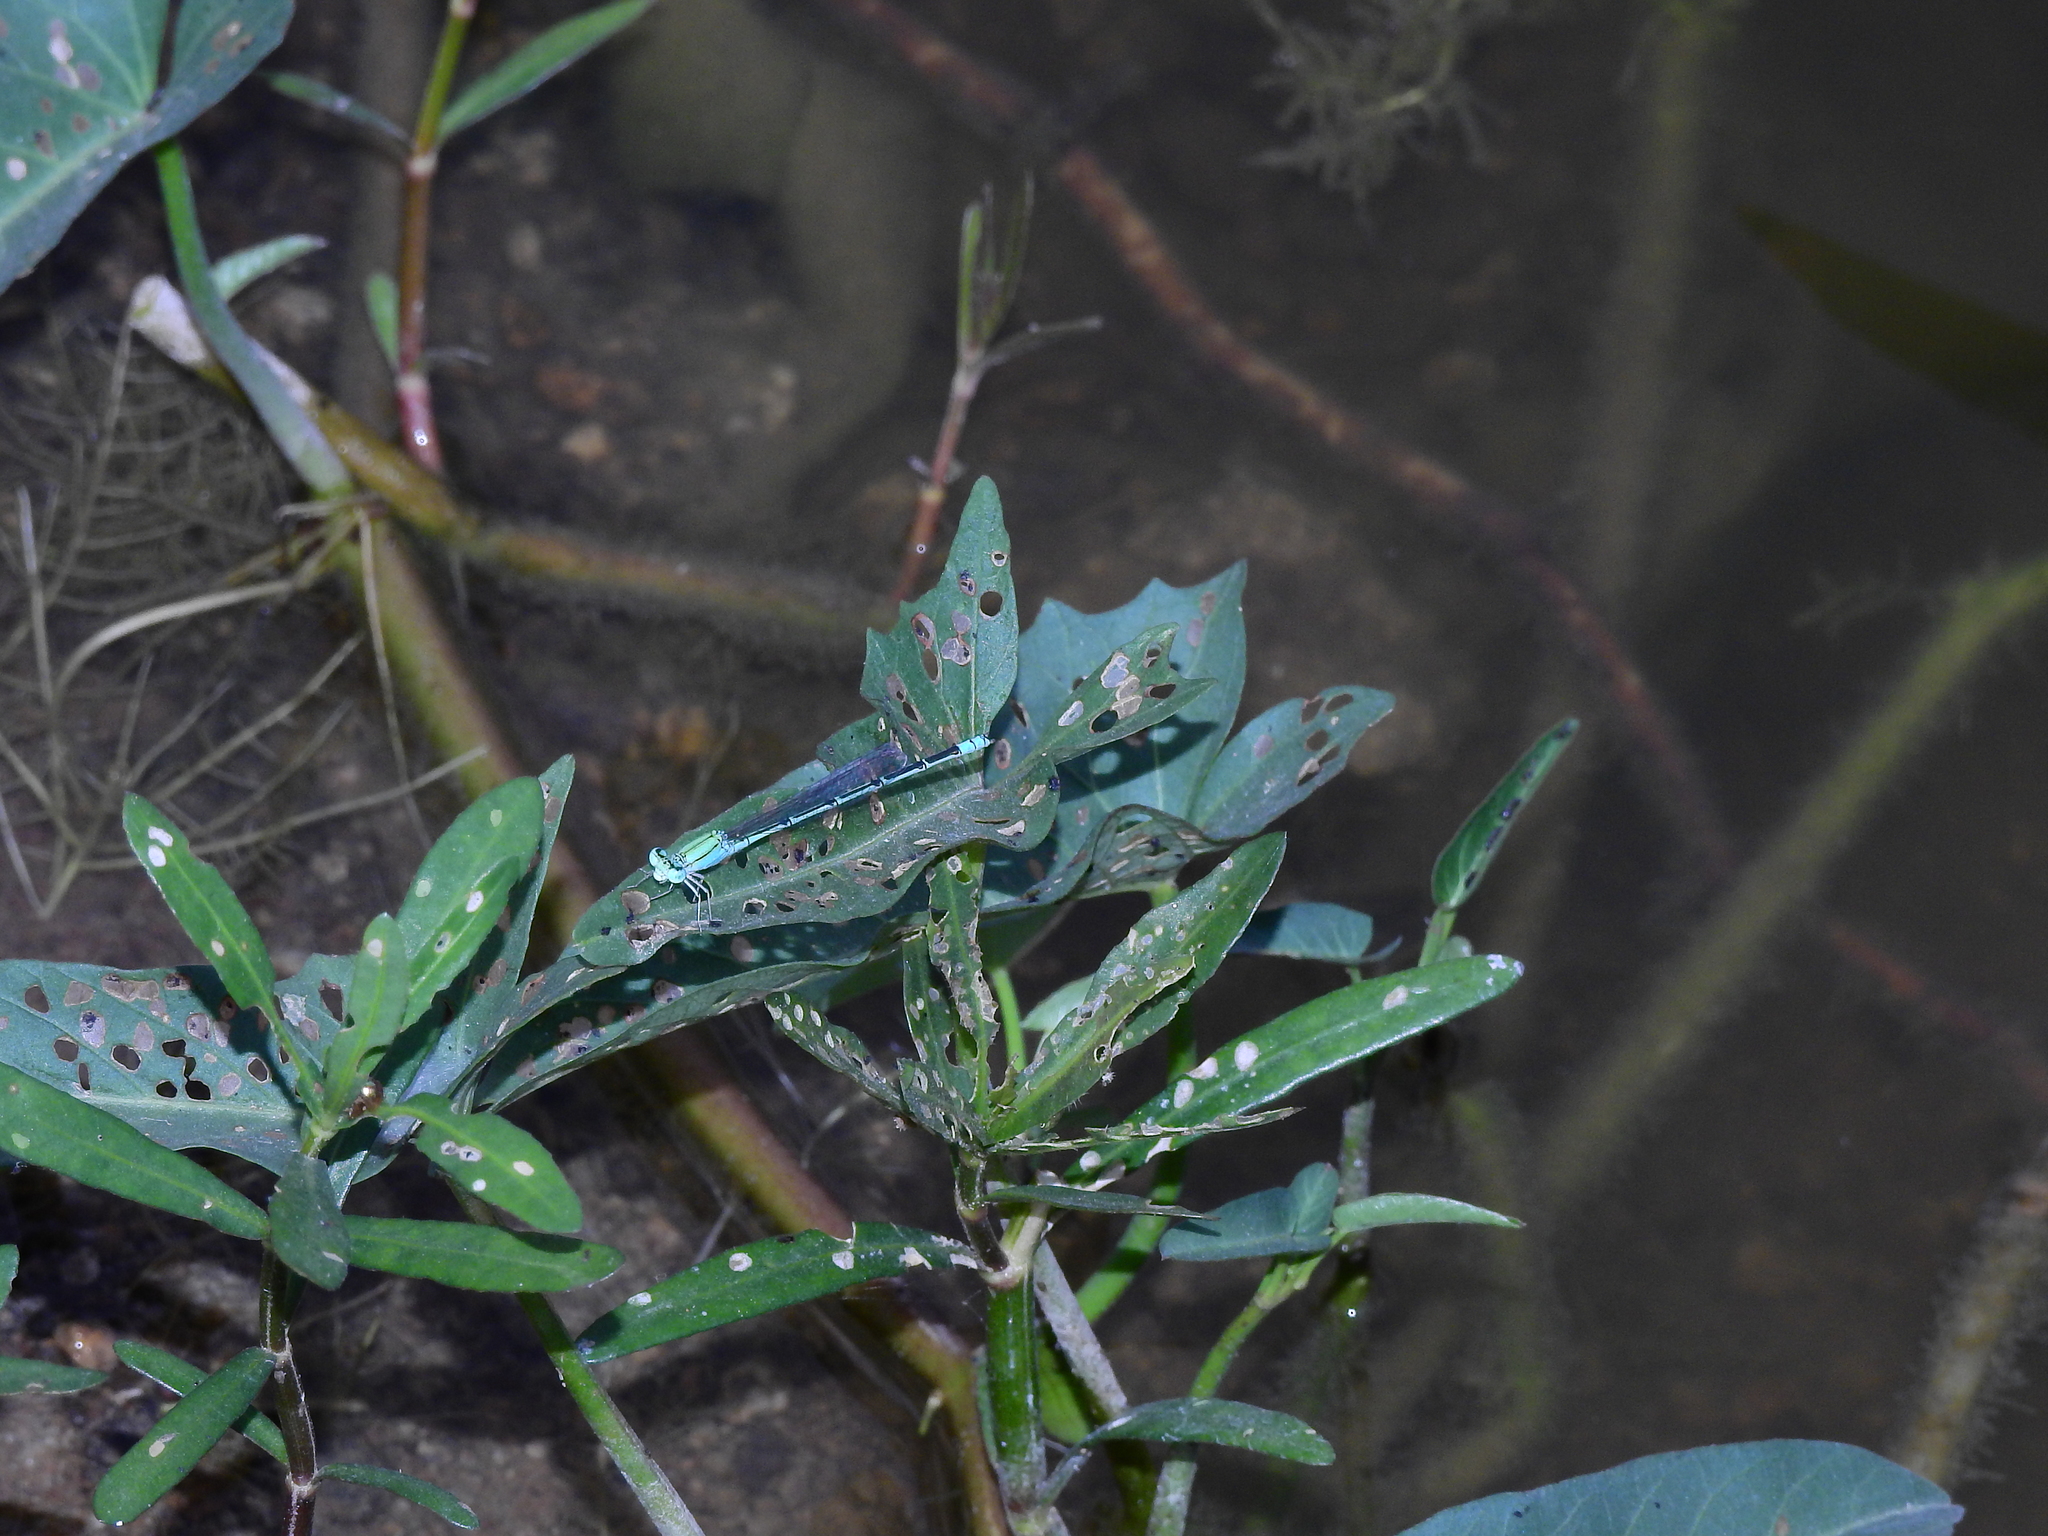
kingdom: Animalia
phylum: Arthropoda
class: Insecta
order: Odonata
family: Coenagrionidae
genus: Pseudagrion
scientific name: Pseudagrion decorum
